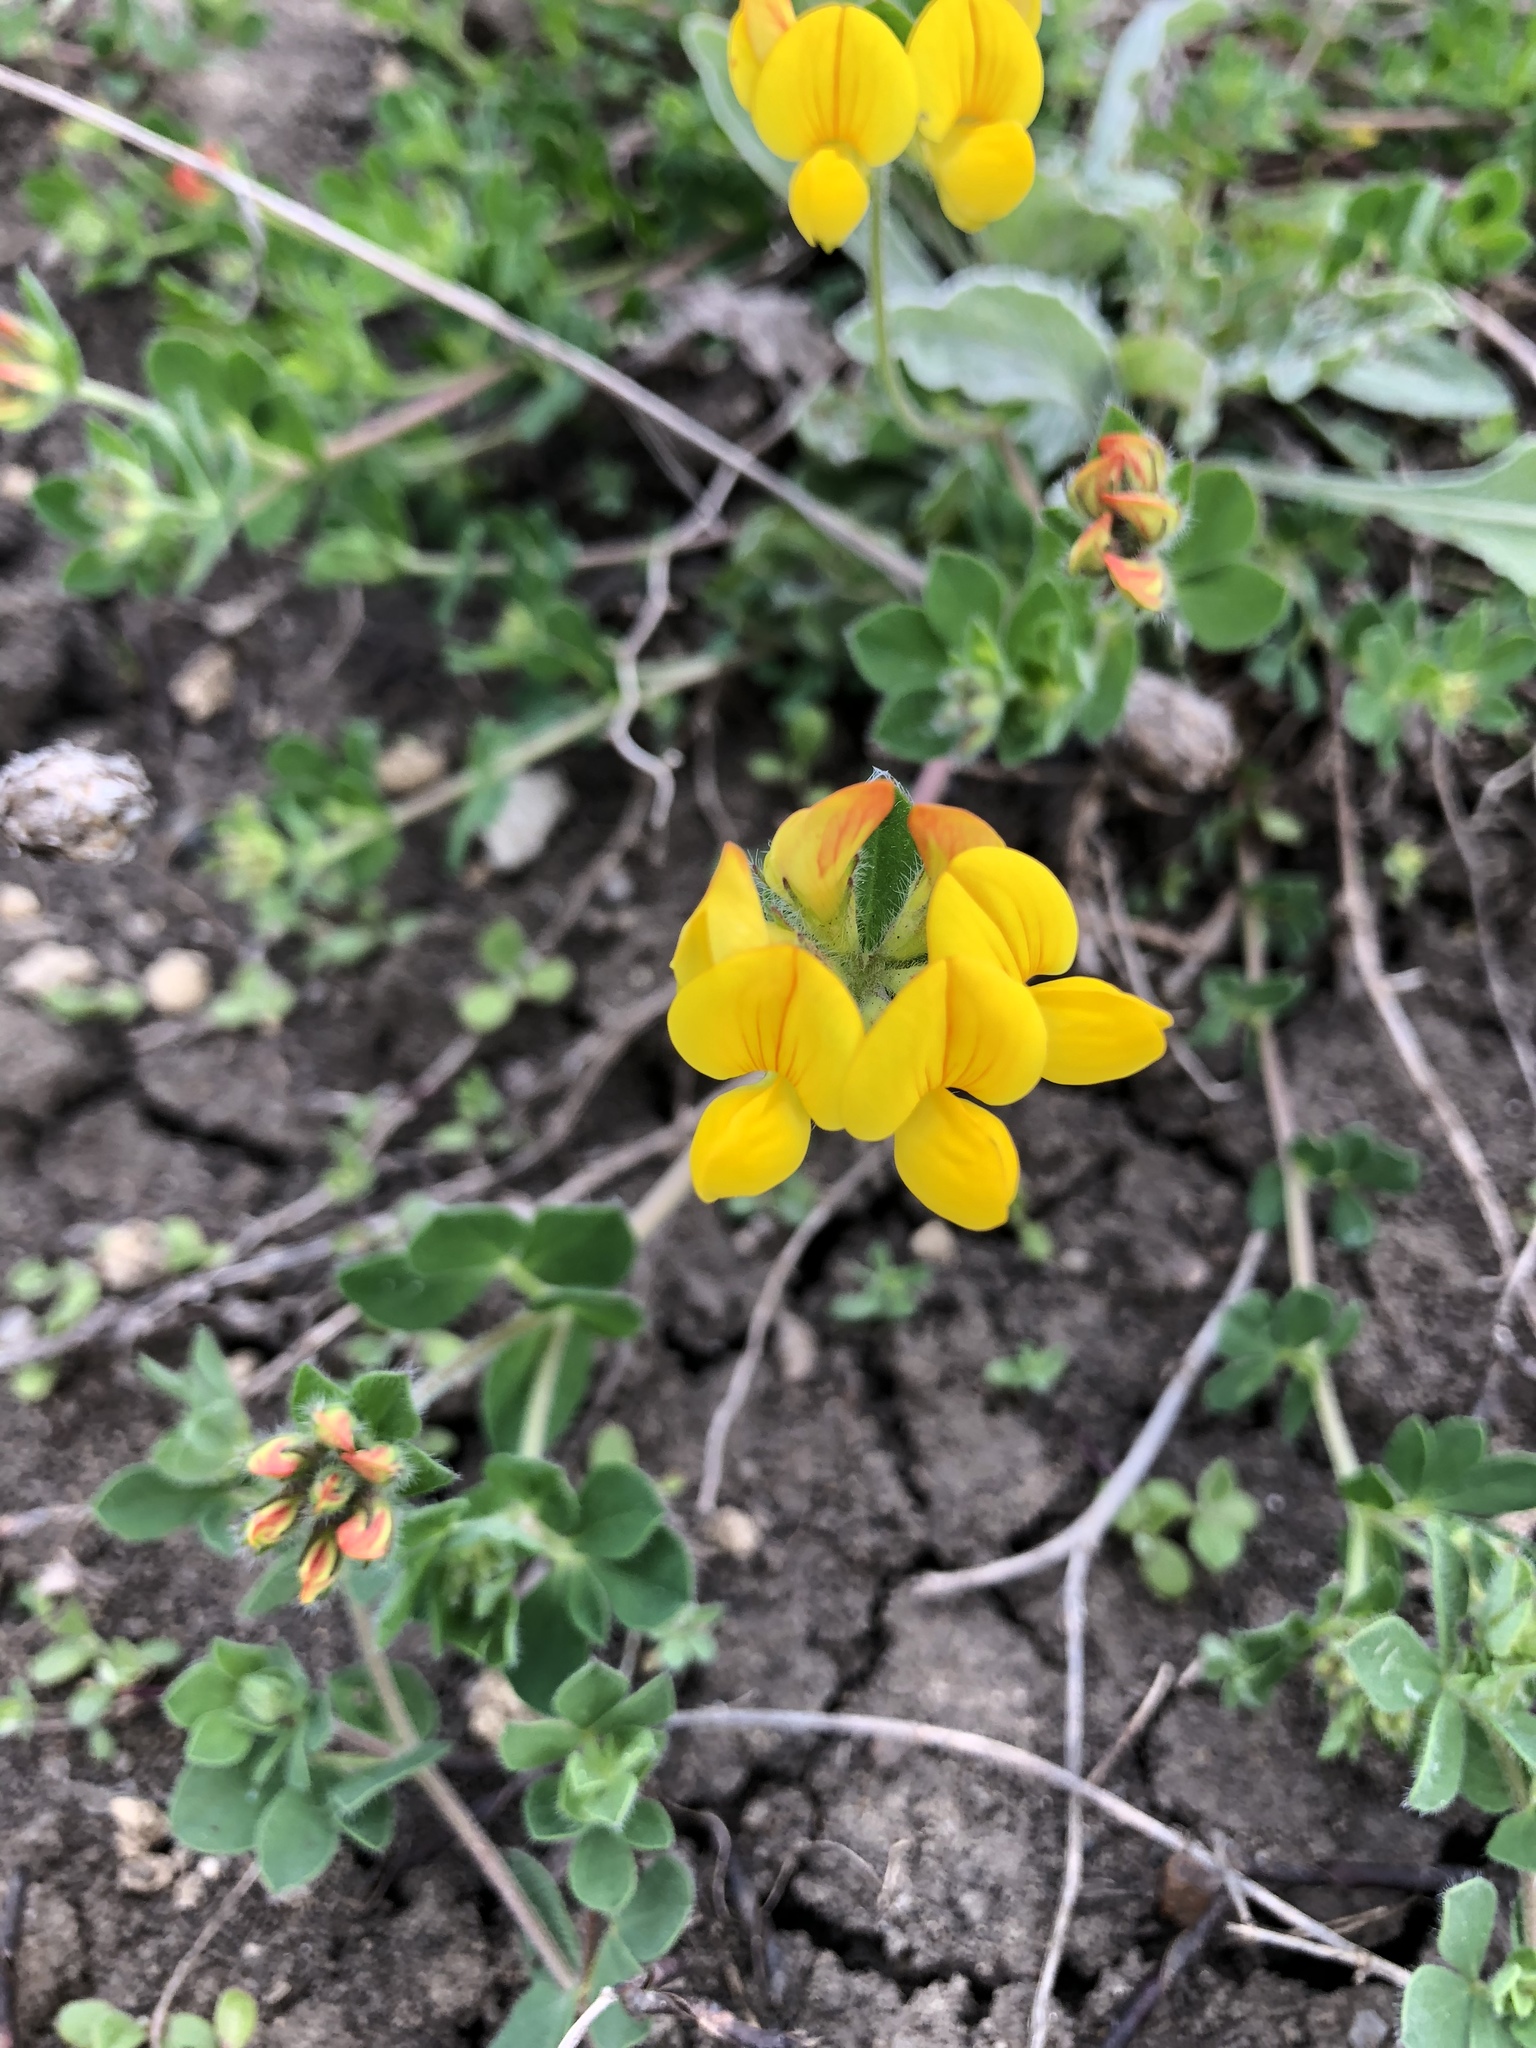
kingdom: Plantae
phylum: Tracheophyta
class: Magnoliopsida
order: Fabales
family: Fabaceae
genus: Lotus
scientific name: Lotus corniculatus
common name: Common bird's-foot-trefoil
